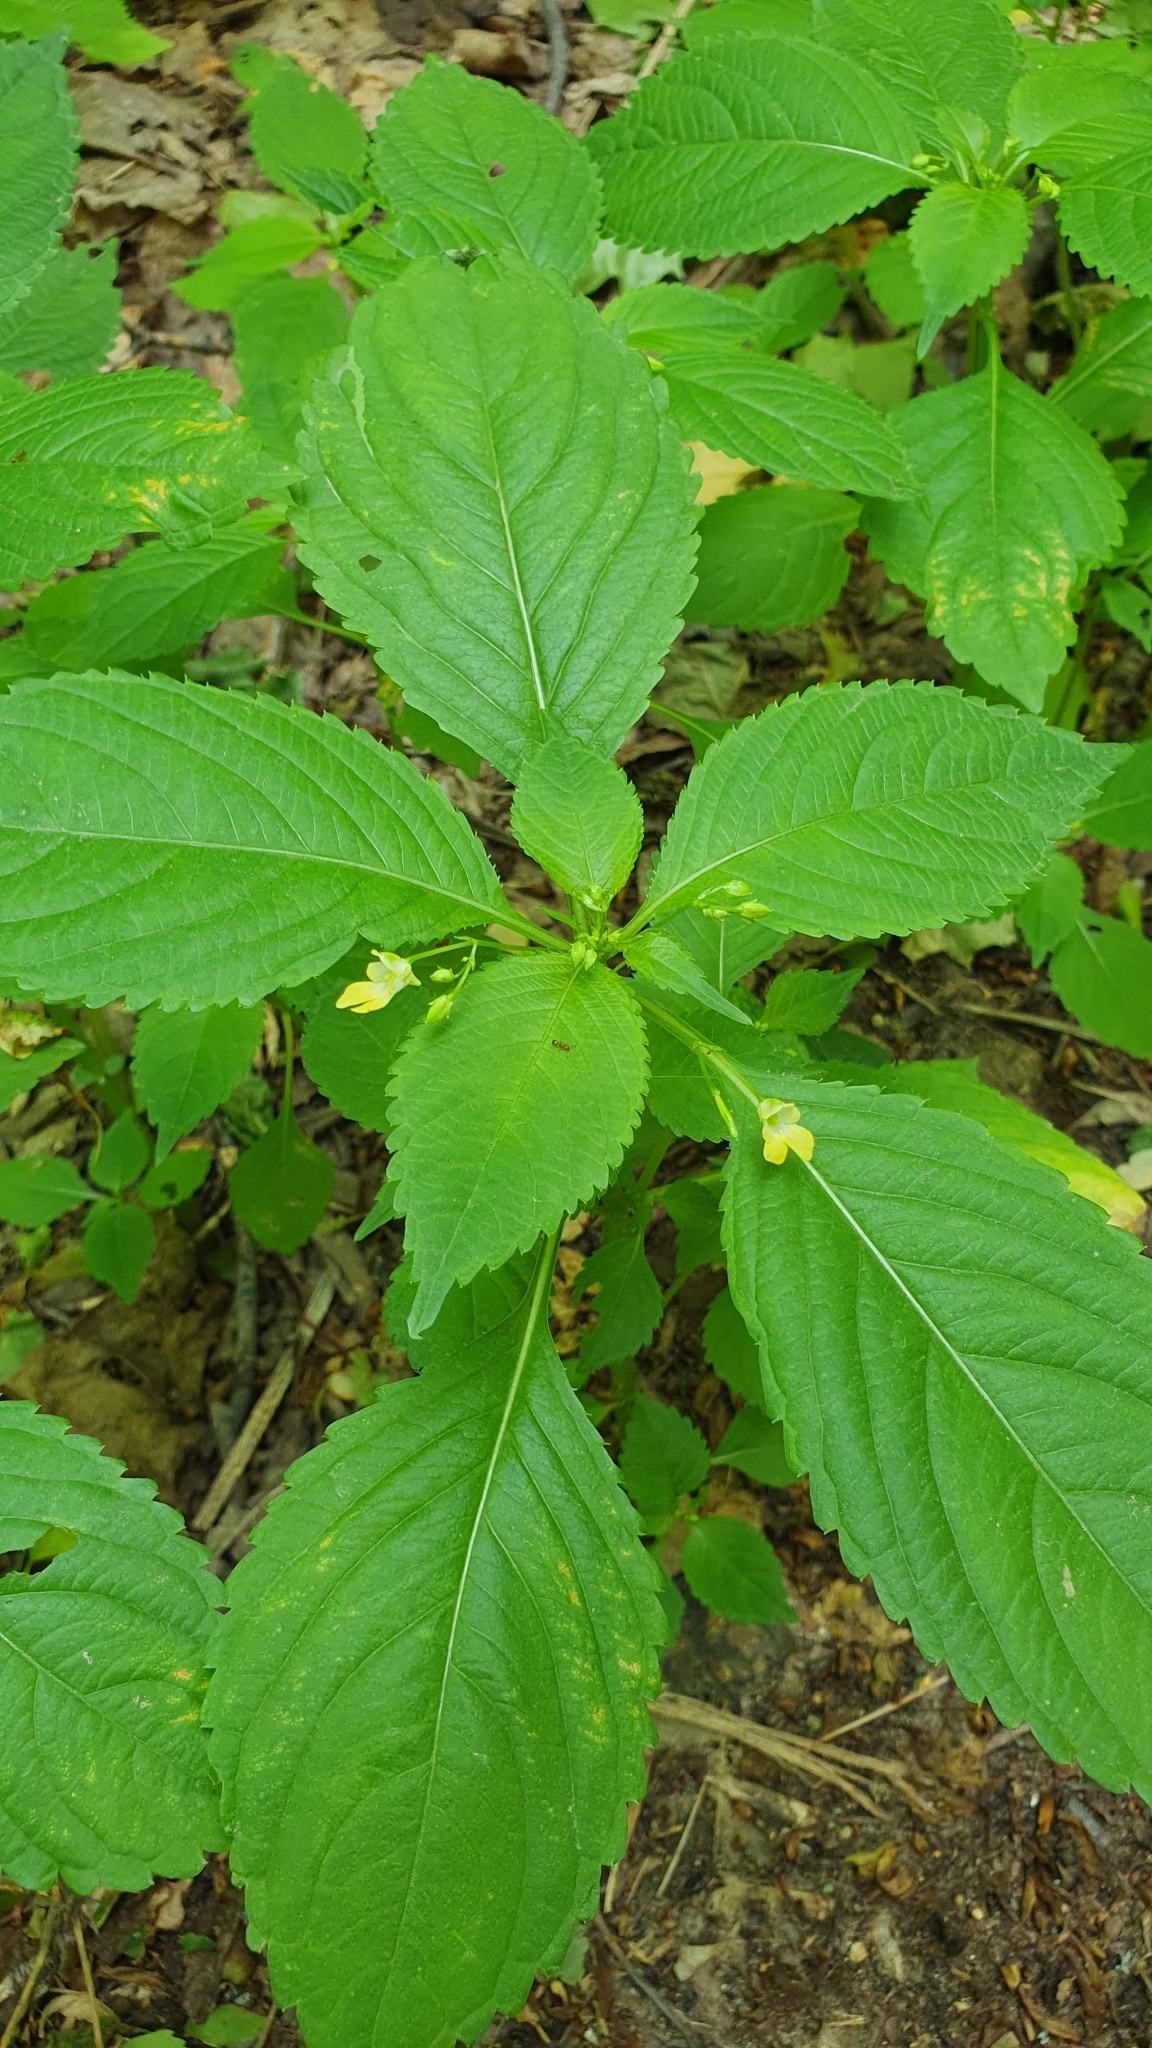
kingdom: Plantae
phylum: Tracheophyta
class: Magnoliopsida
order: Ericales
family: Balsaminaceae
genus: Impatiens
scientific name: Impatiens parviflora
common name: Small balsam
